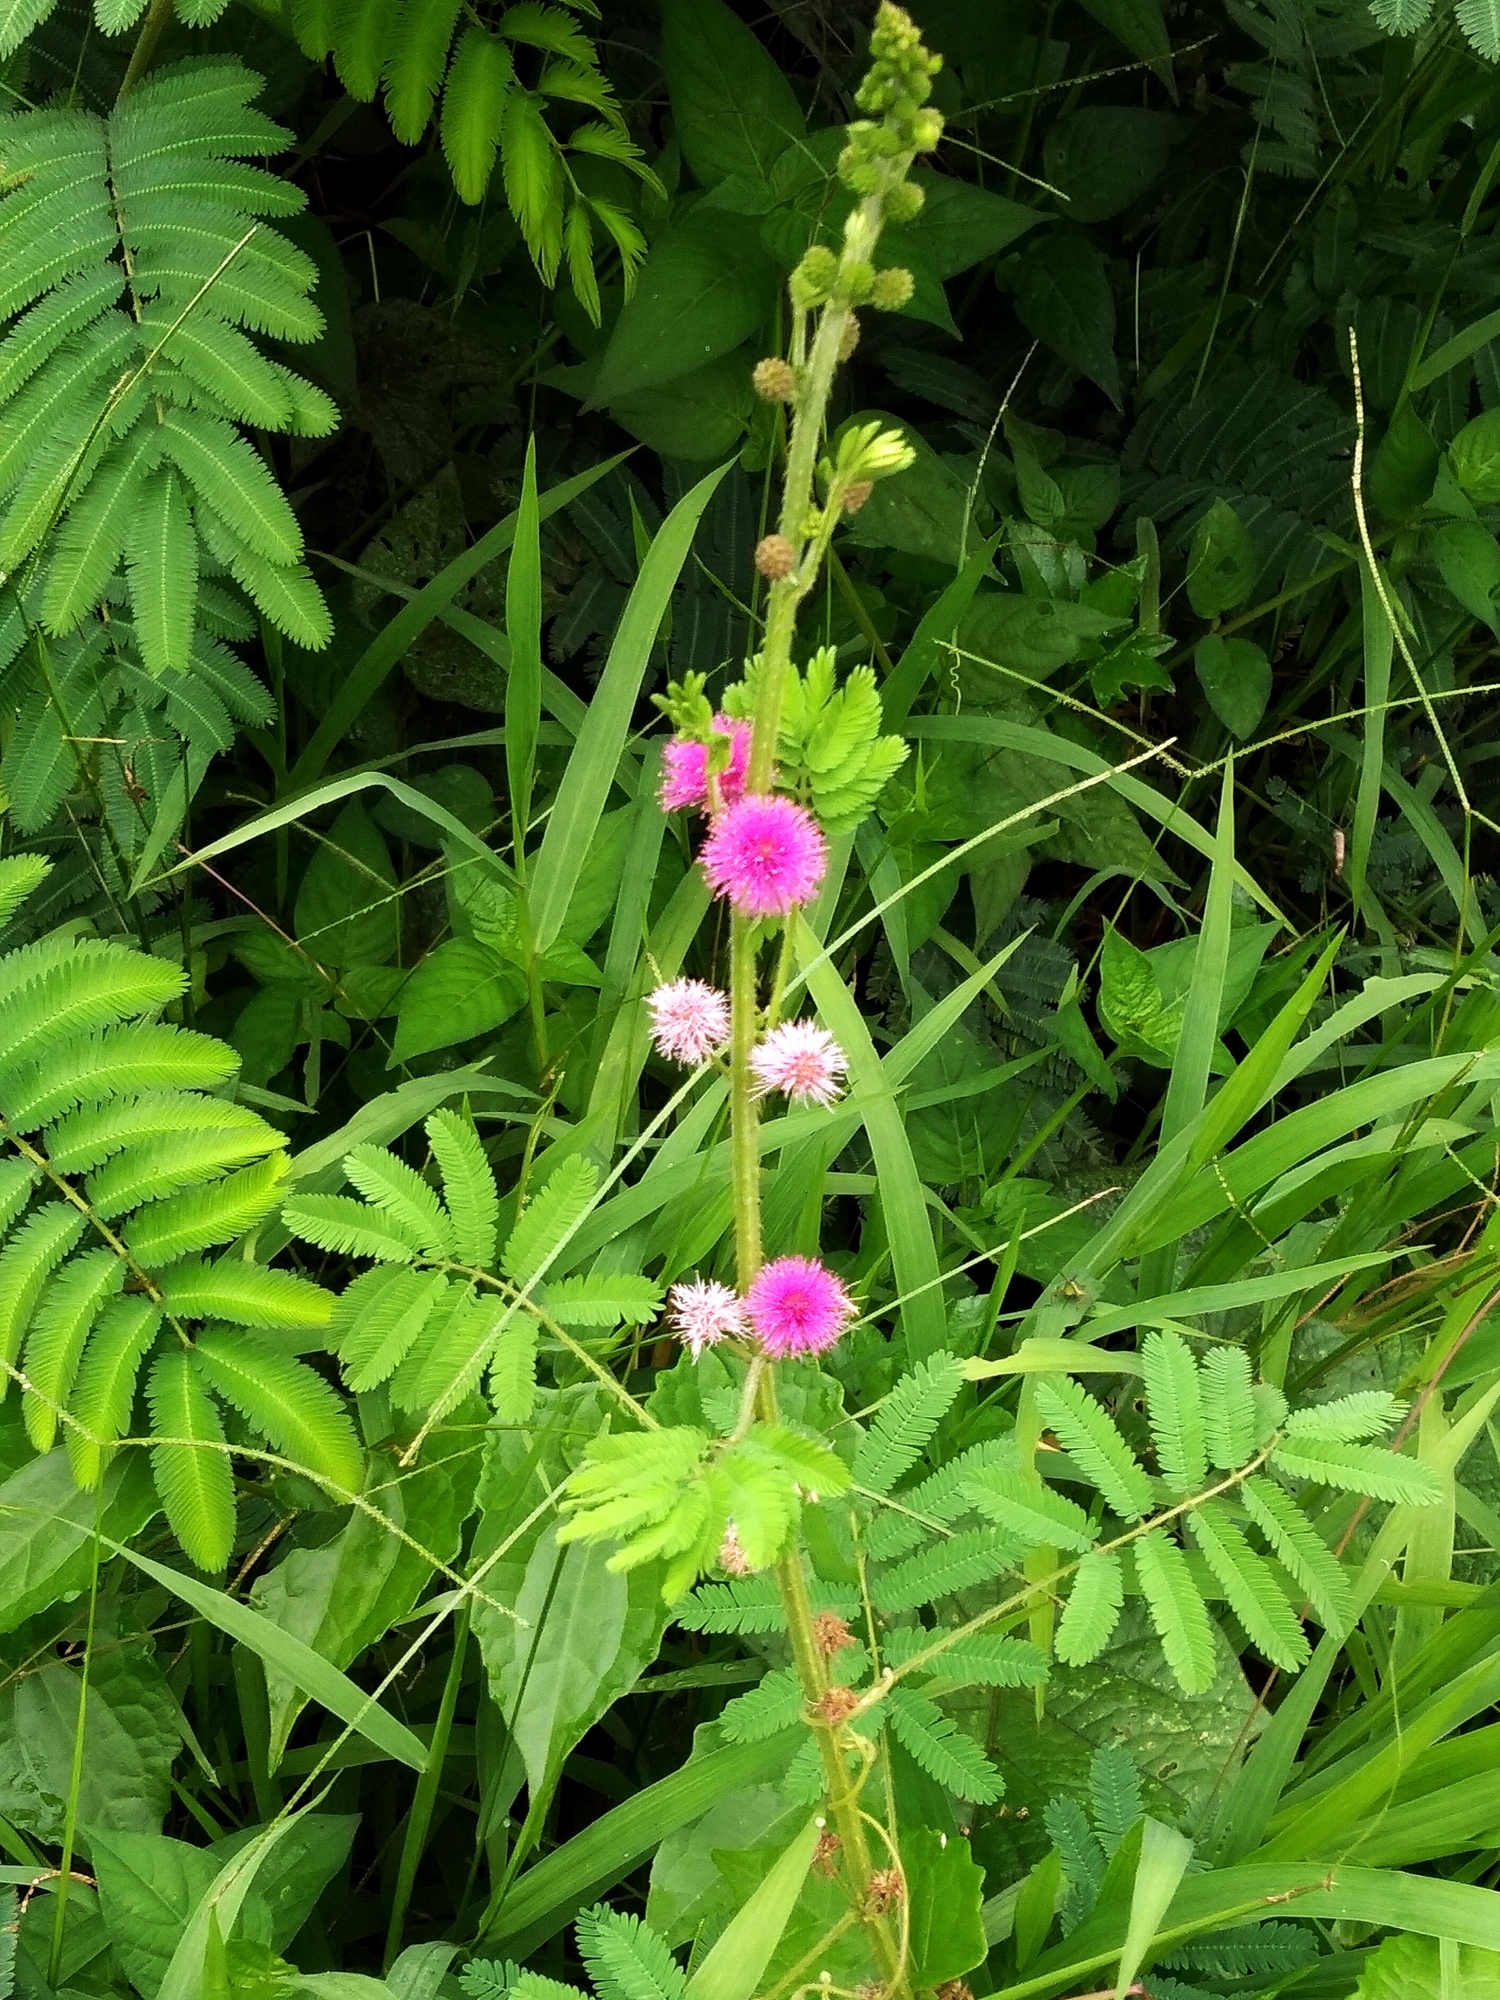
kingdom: Plantae
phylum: Tracheophyta
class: Magnoliopsida
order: Fabales
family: Fabaceae
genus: Mimosa
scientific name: Mimosa diplotricha
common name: Giant sensitive-plant
